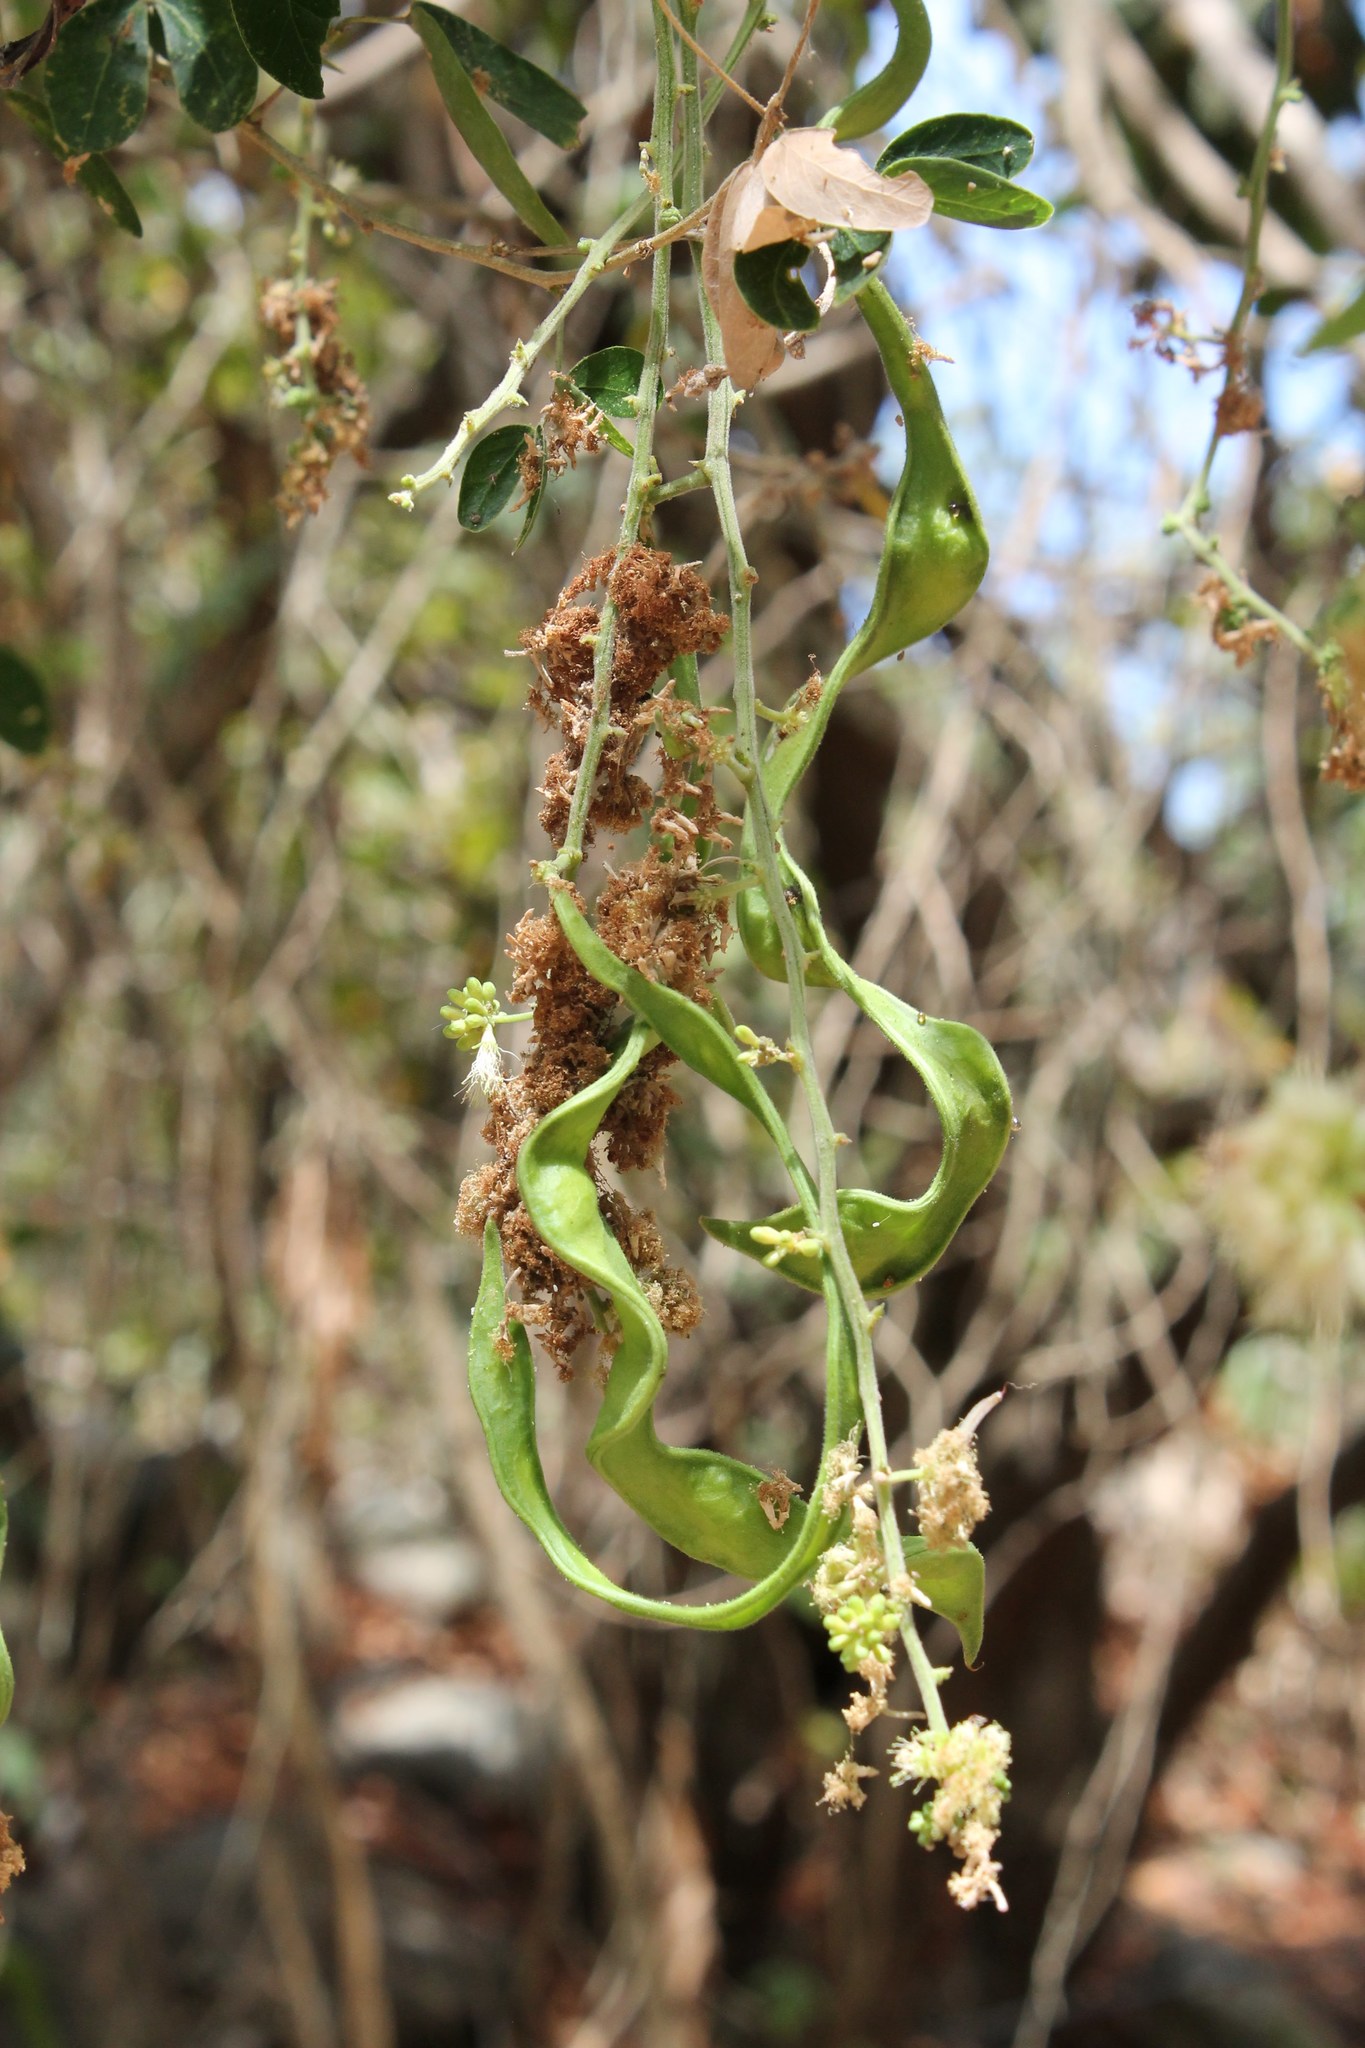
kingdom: Plantae
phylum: Tracheophyta
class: Magnoliopsida
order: Fabales
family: Fabaceae
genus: Pithecellobium
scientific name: Pithecellobium dulce
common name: Monkeypod
